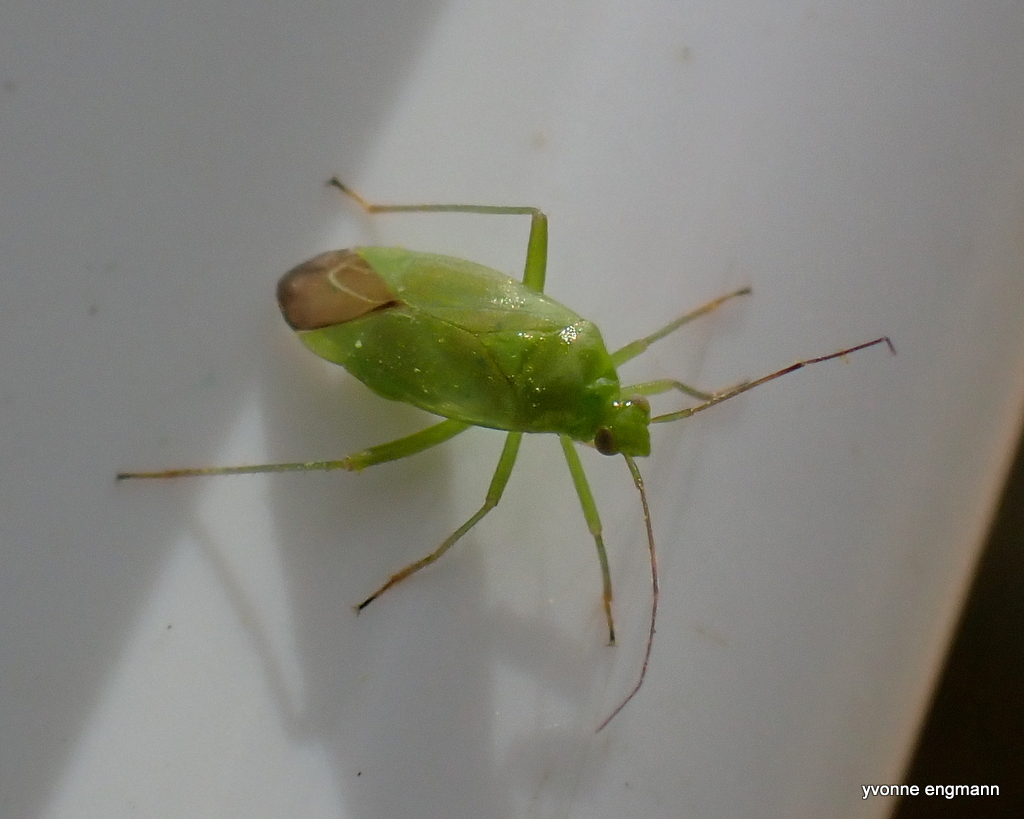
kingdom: Animalia
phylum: Arthropoda
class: Insecta
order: Hemiptera
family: Miridae
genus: Lygocoris
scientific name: Lygocoris pabulinus
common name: Common green capsid
